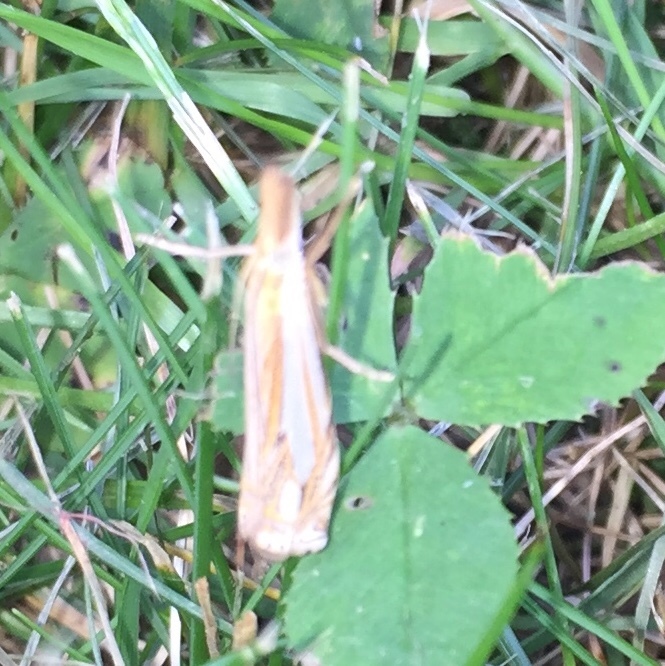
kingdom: Animalia
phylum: Arthropoda
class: Insecta
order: Lepidoptera
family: Crambidae
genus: Crambus
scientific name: Crambus saltuellus
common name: Pasture grass-veneer
